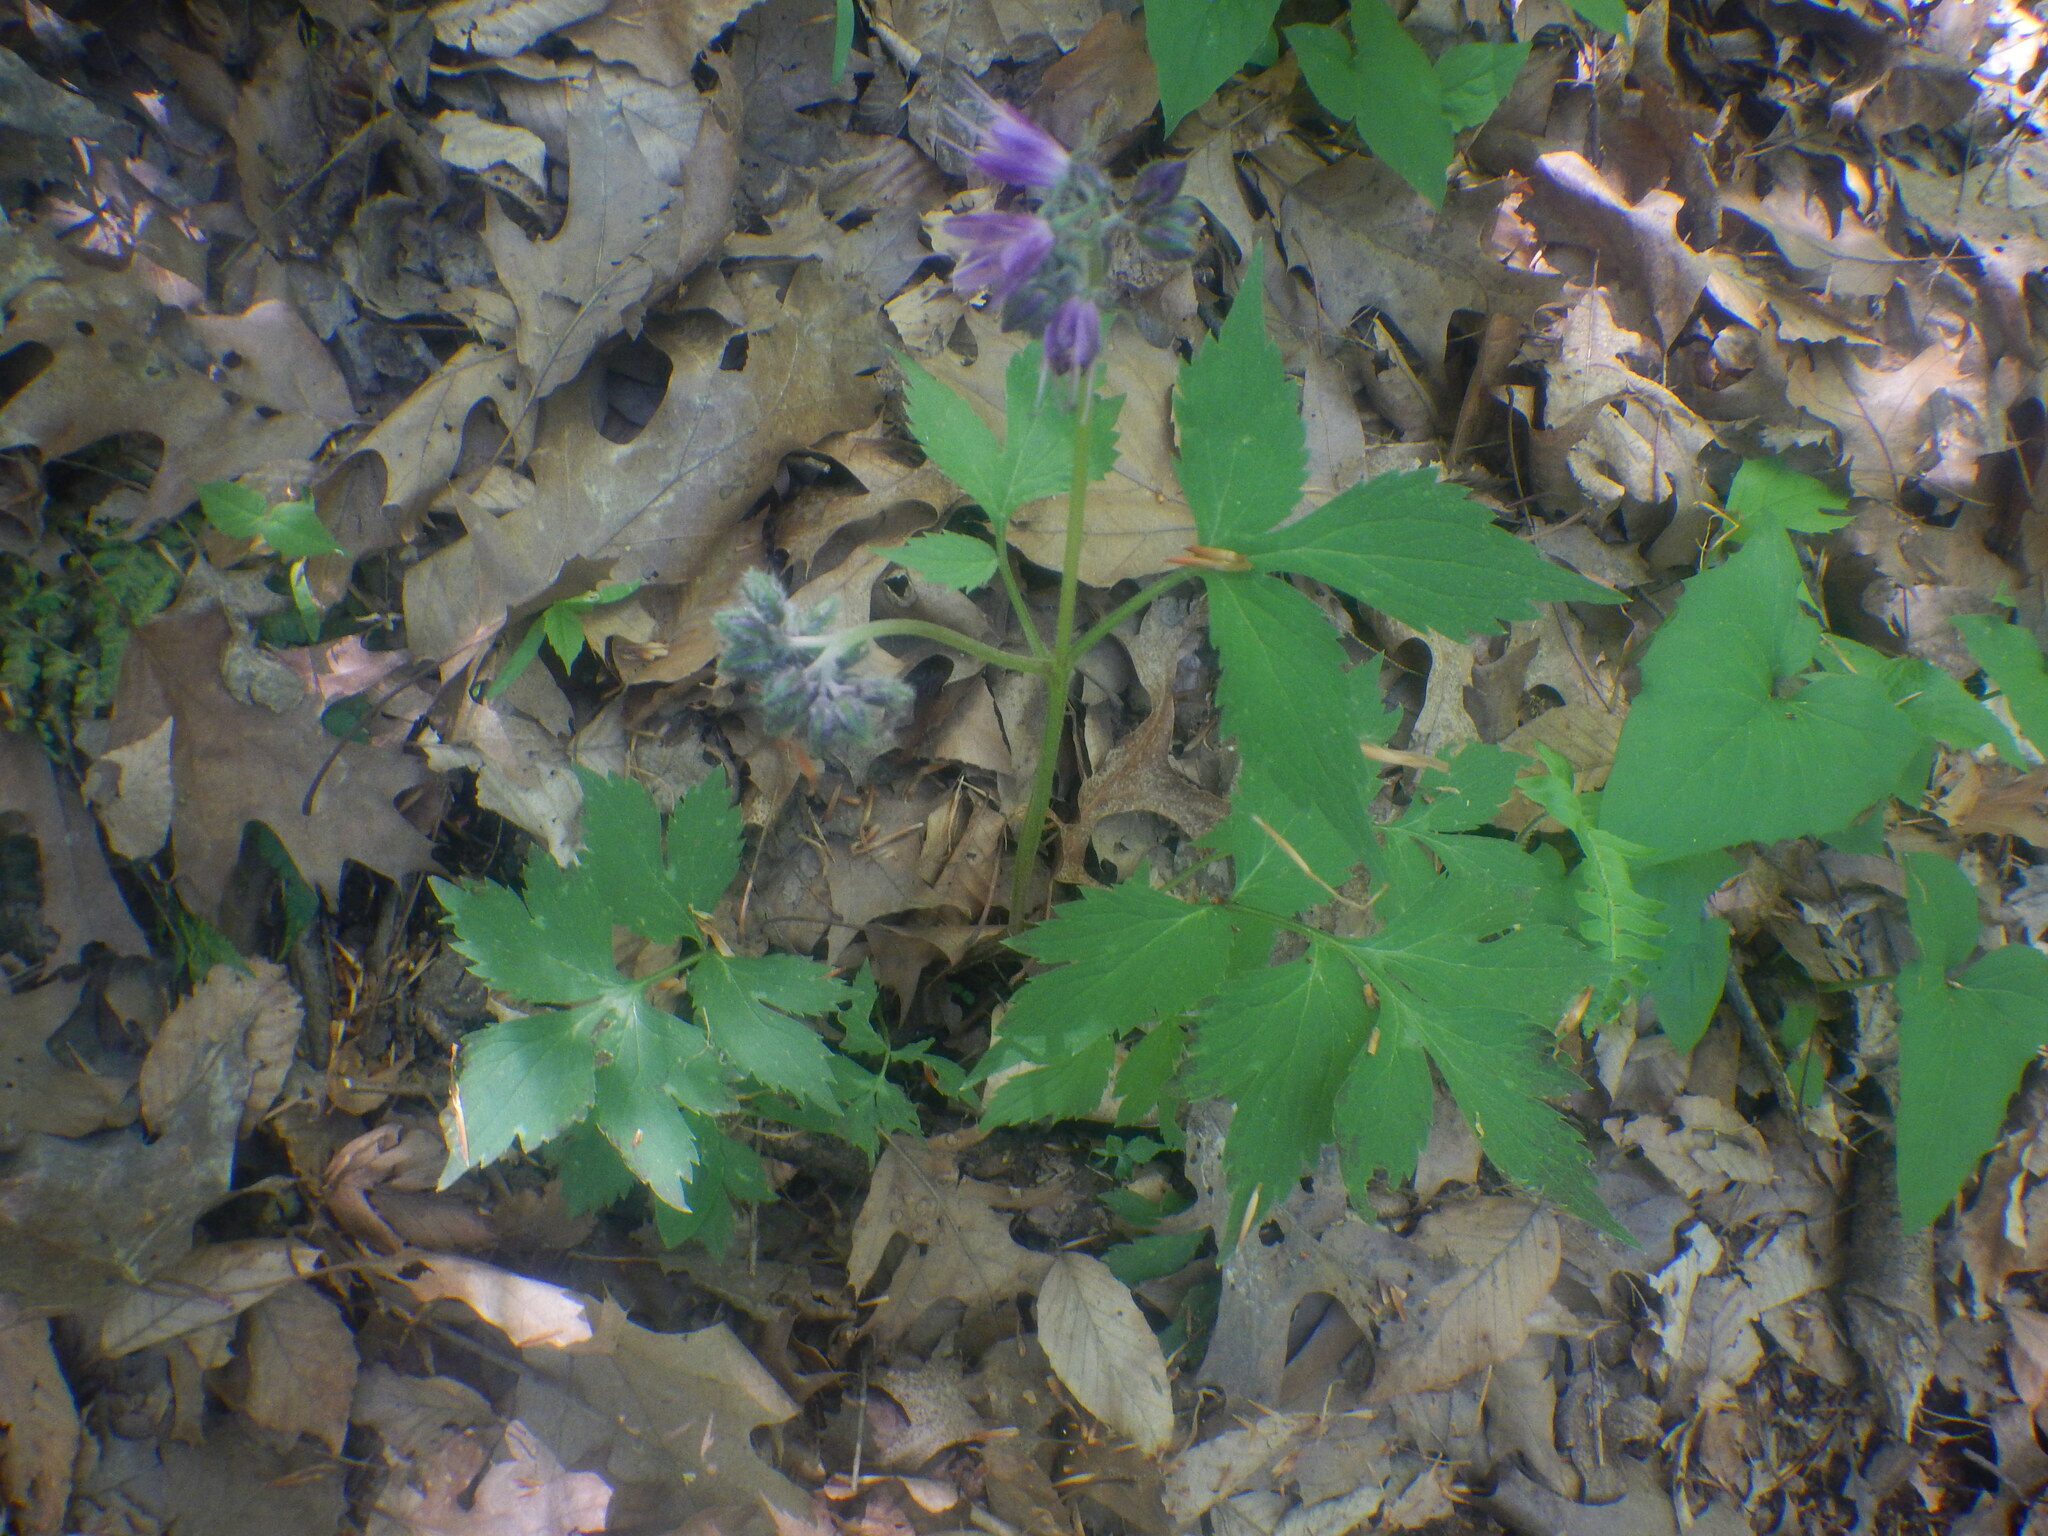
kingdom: Plantae
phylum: Tracheophyta
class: Magnoliopsida
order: Boraginales
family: Hydrophyllaceae
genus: Hydrophyllum
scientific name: Hydrophyllum virginianum
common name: Virginia waterleaf
